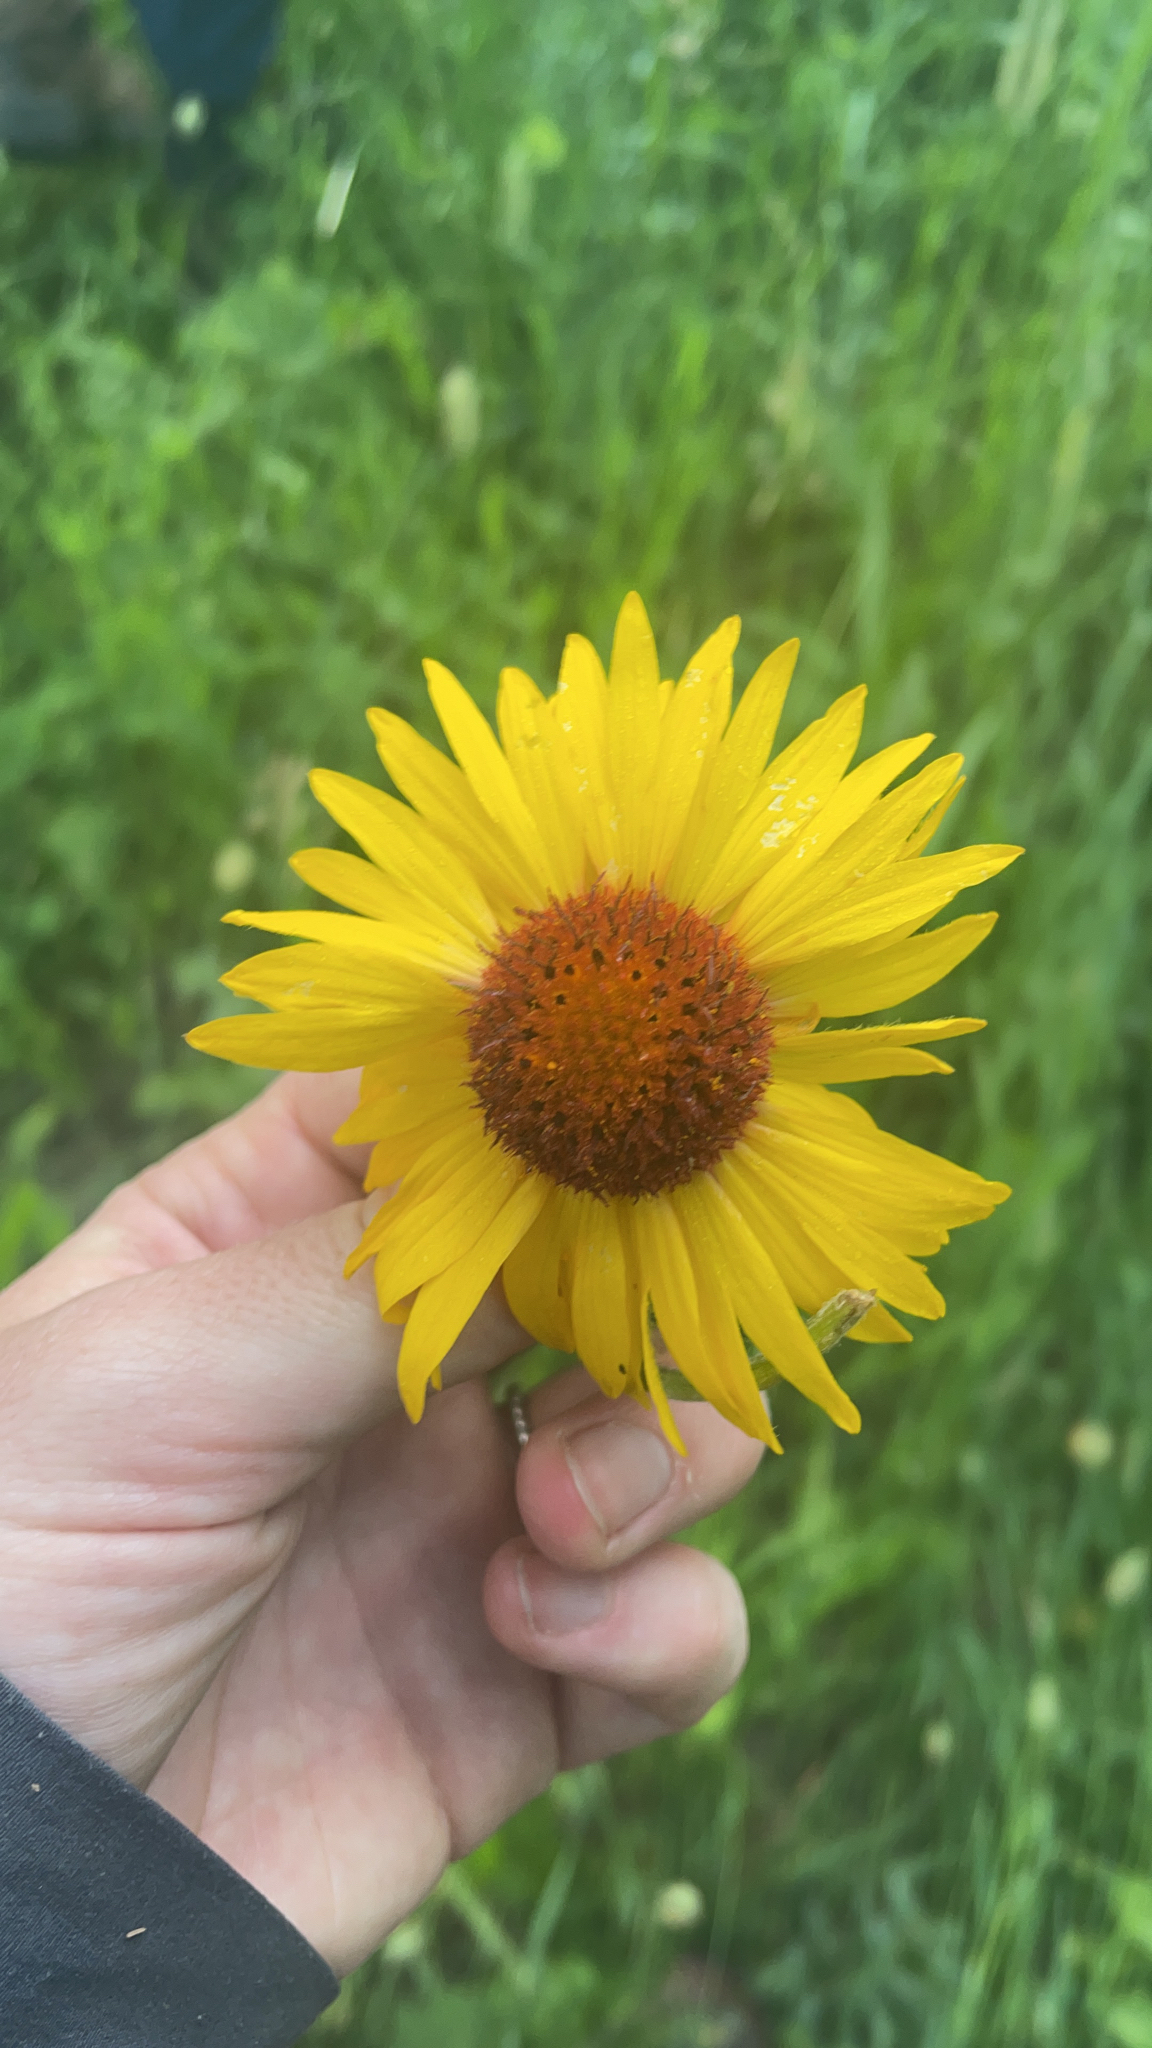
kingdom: Plantae
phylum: Tracheophyta
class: Magnoliopsida
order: Asterales
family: Asteraceae
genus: Gaillardia
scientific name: Gaillardia aristata
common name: Blanket-flower
